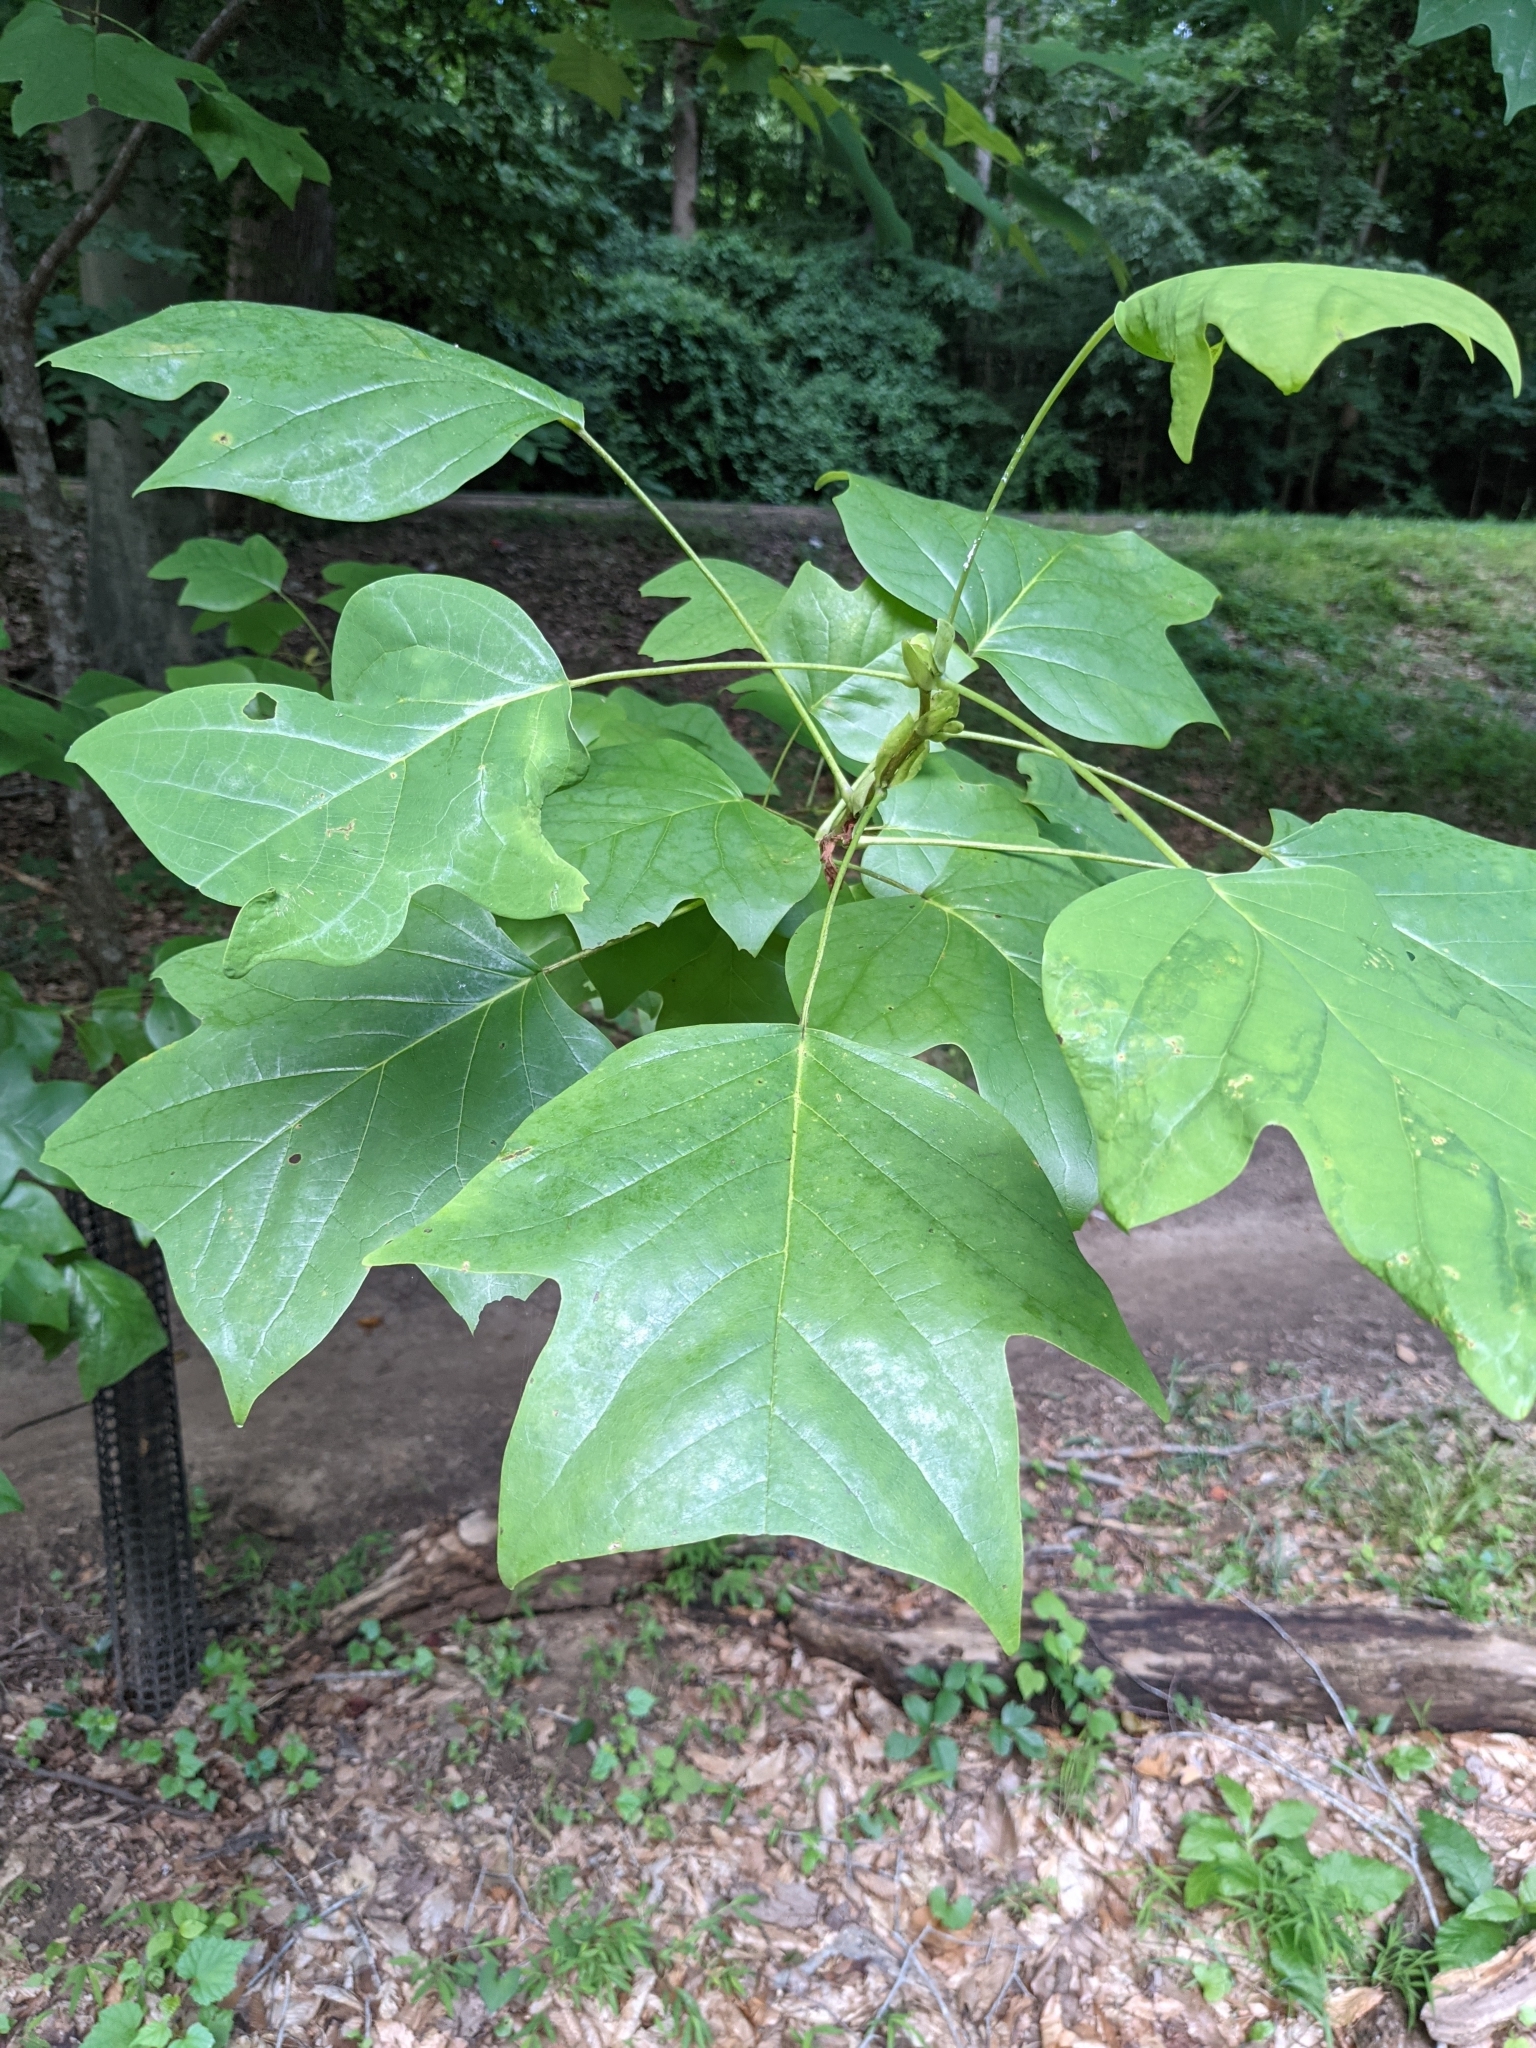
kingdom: Plantae
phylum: Tracheophyta
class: Magnoliopsida
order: Magnoliales
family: Magnoliaceae
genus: Liriodendron
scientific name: Liriodendron tulipifera
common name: Tulip tree
